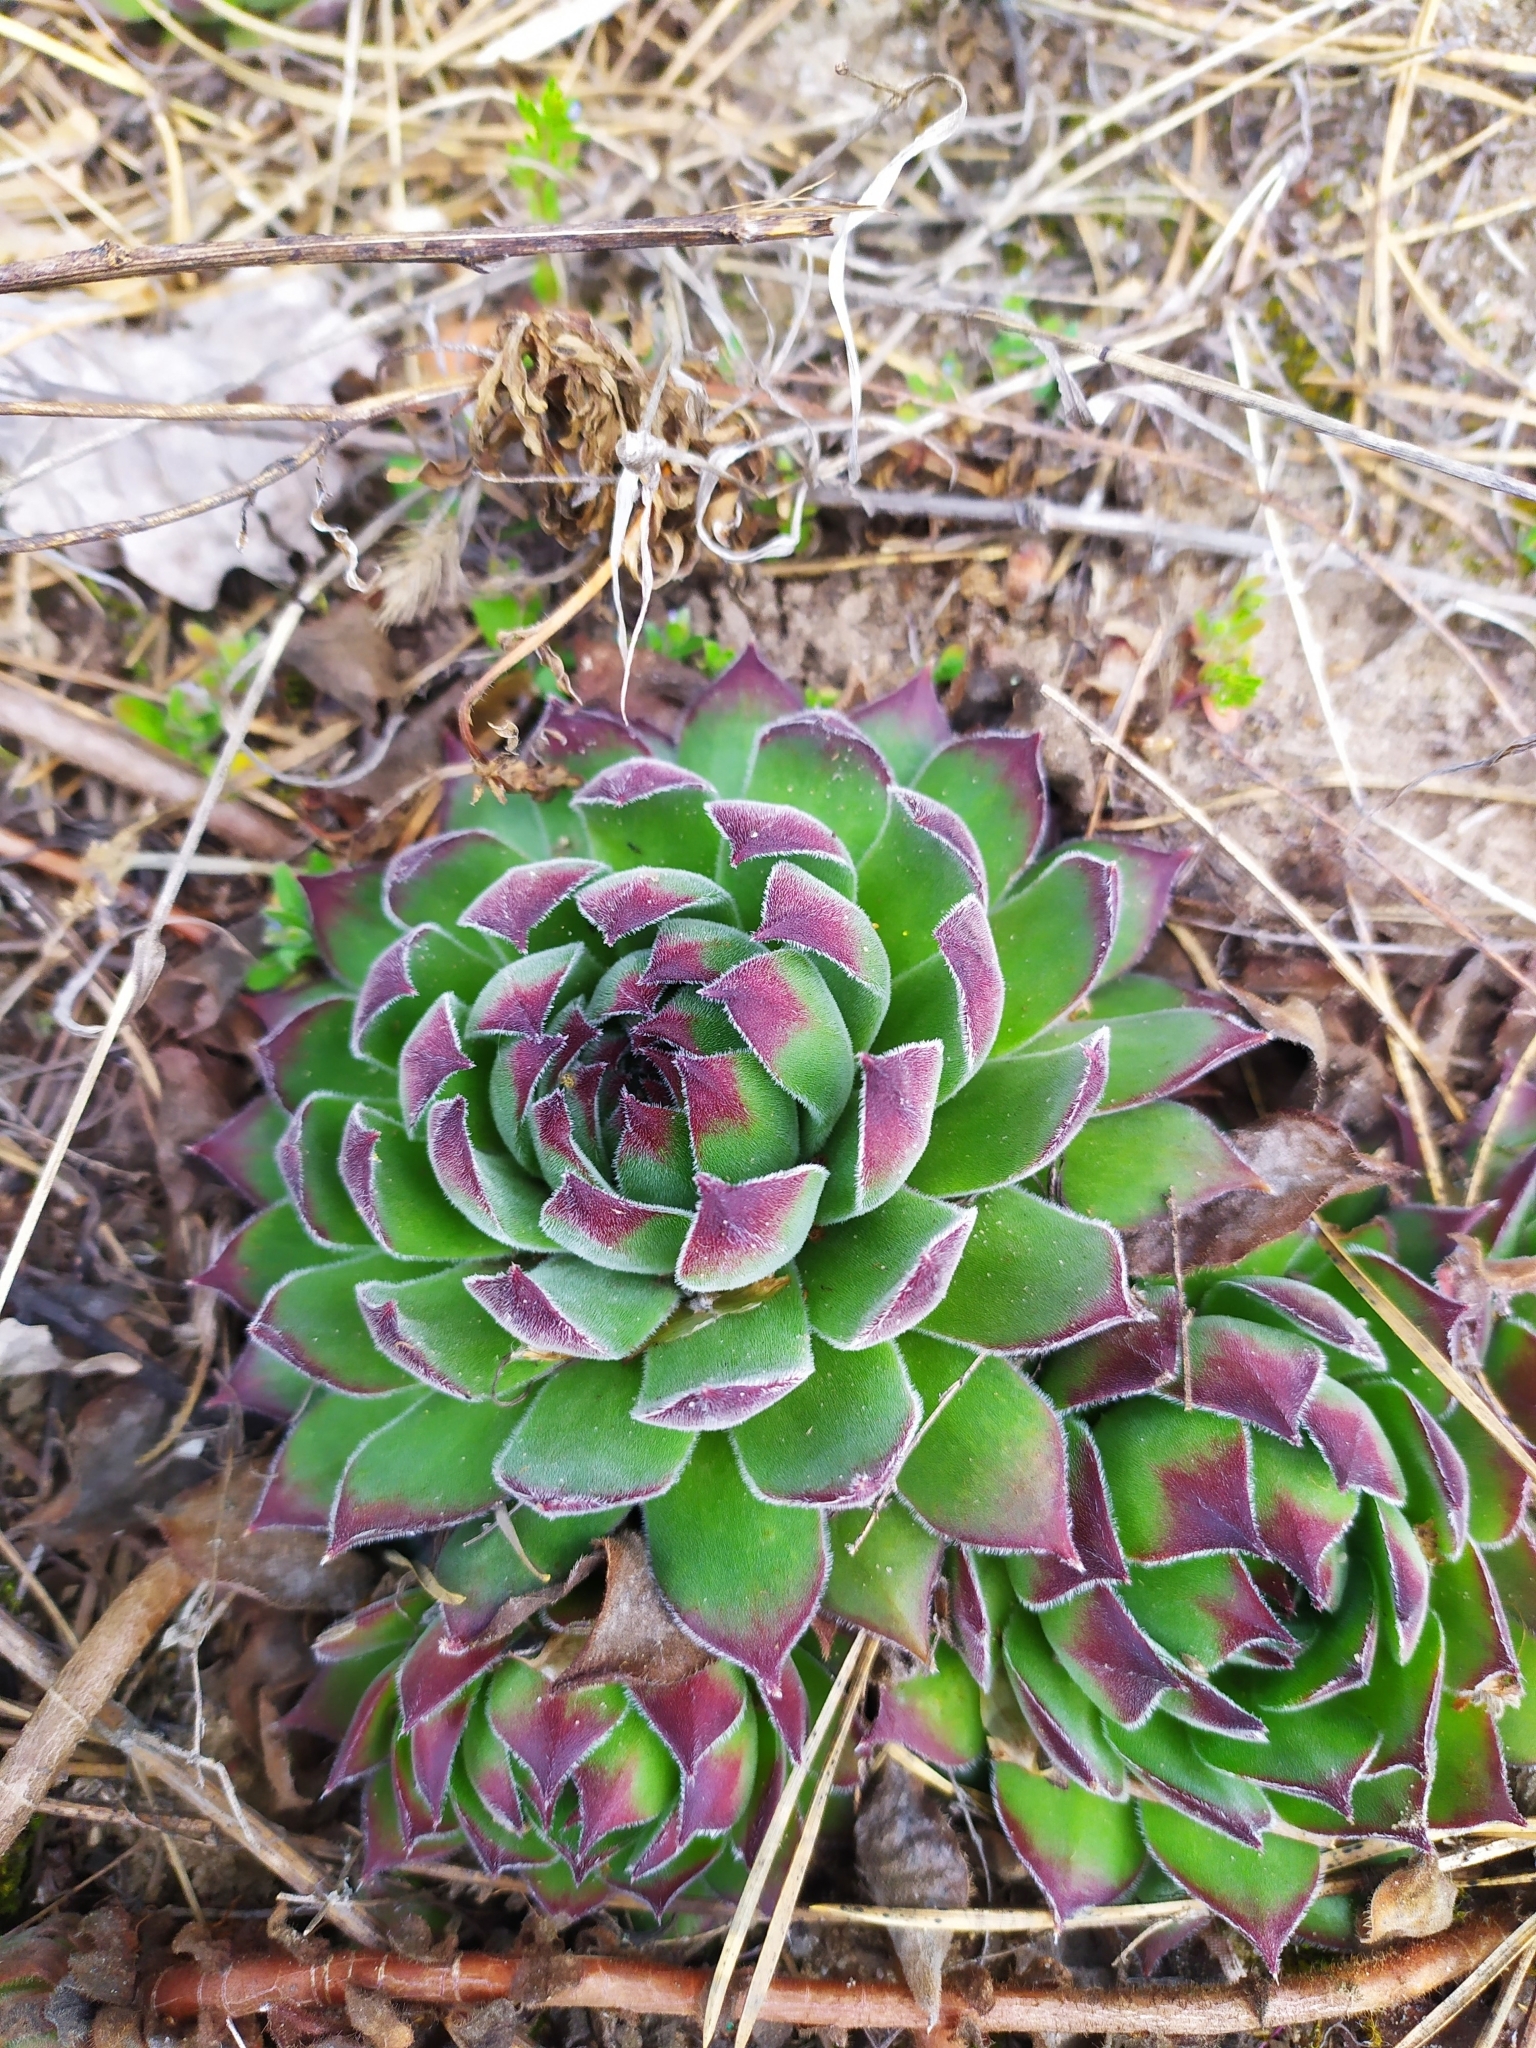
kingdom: Plantae
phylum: Tracheophyta
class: Magnoliopsida
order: Saxifragales
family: Crassulaceae
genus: Sempervivum
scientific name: Sempervivum ruthenicum
